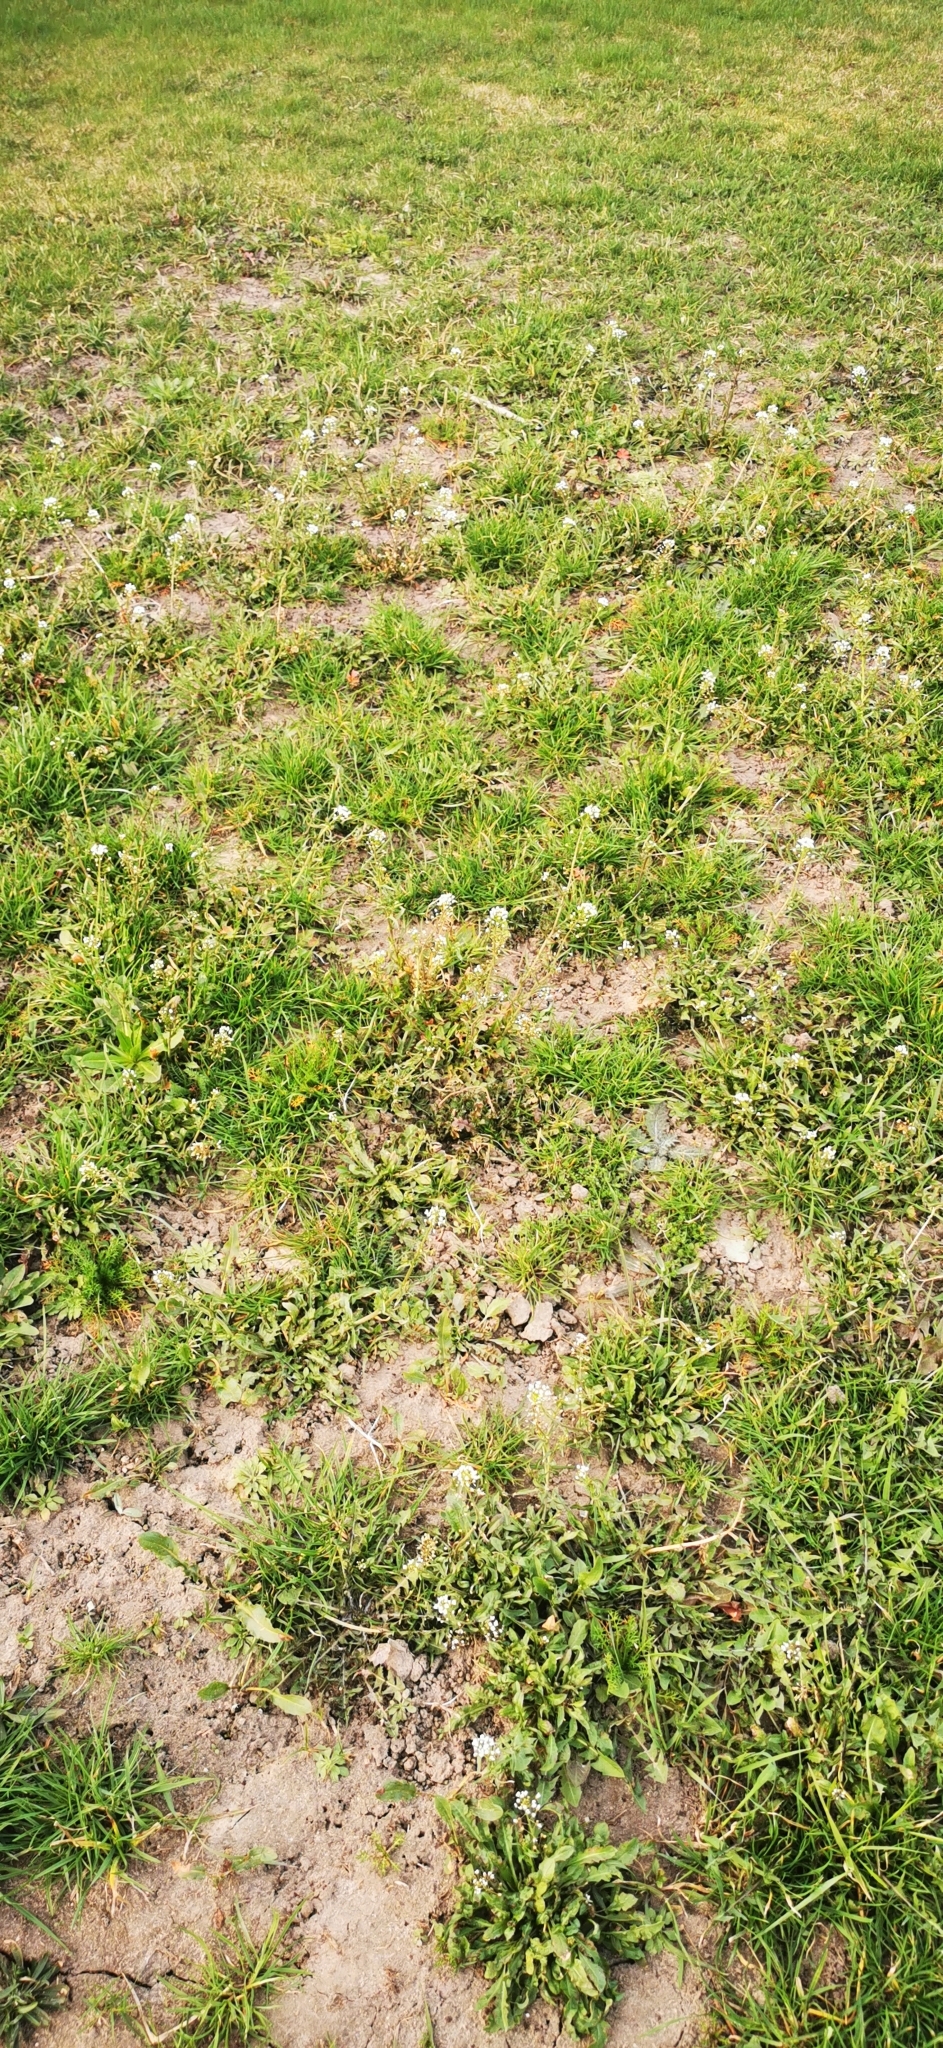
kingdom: Plantae
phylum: Tracheophyta
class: Magnoliopsida
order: Brassicales
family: Brassicaceae
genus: Capsella
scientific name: Capsella bursa-pastoris
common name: Shepherd's purse
